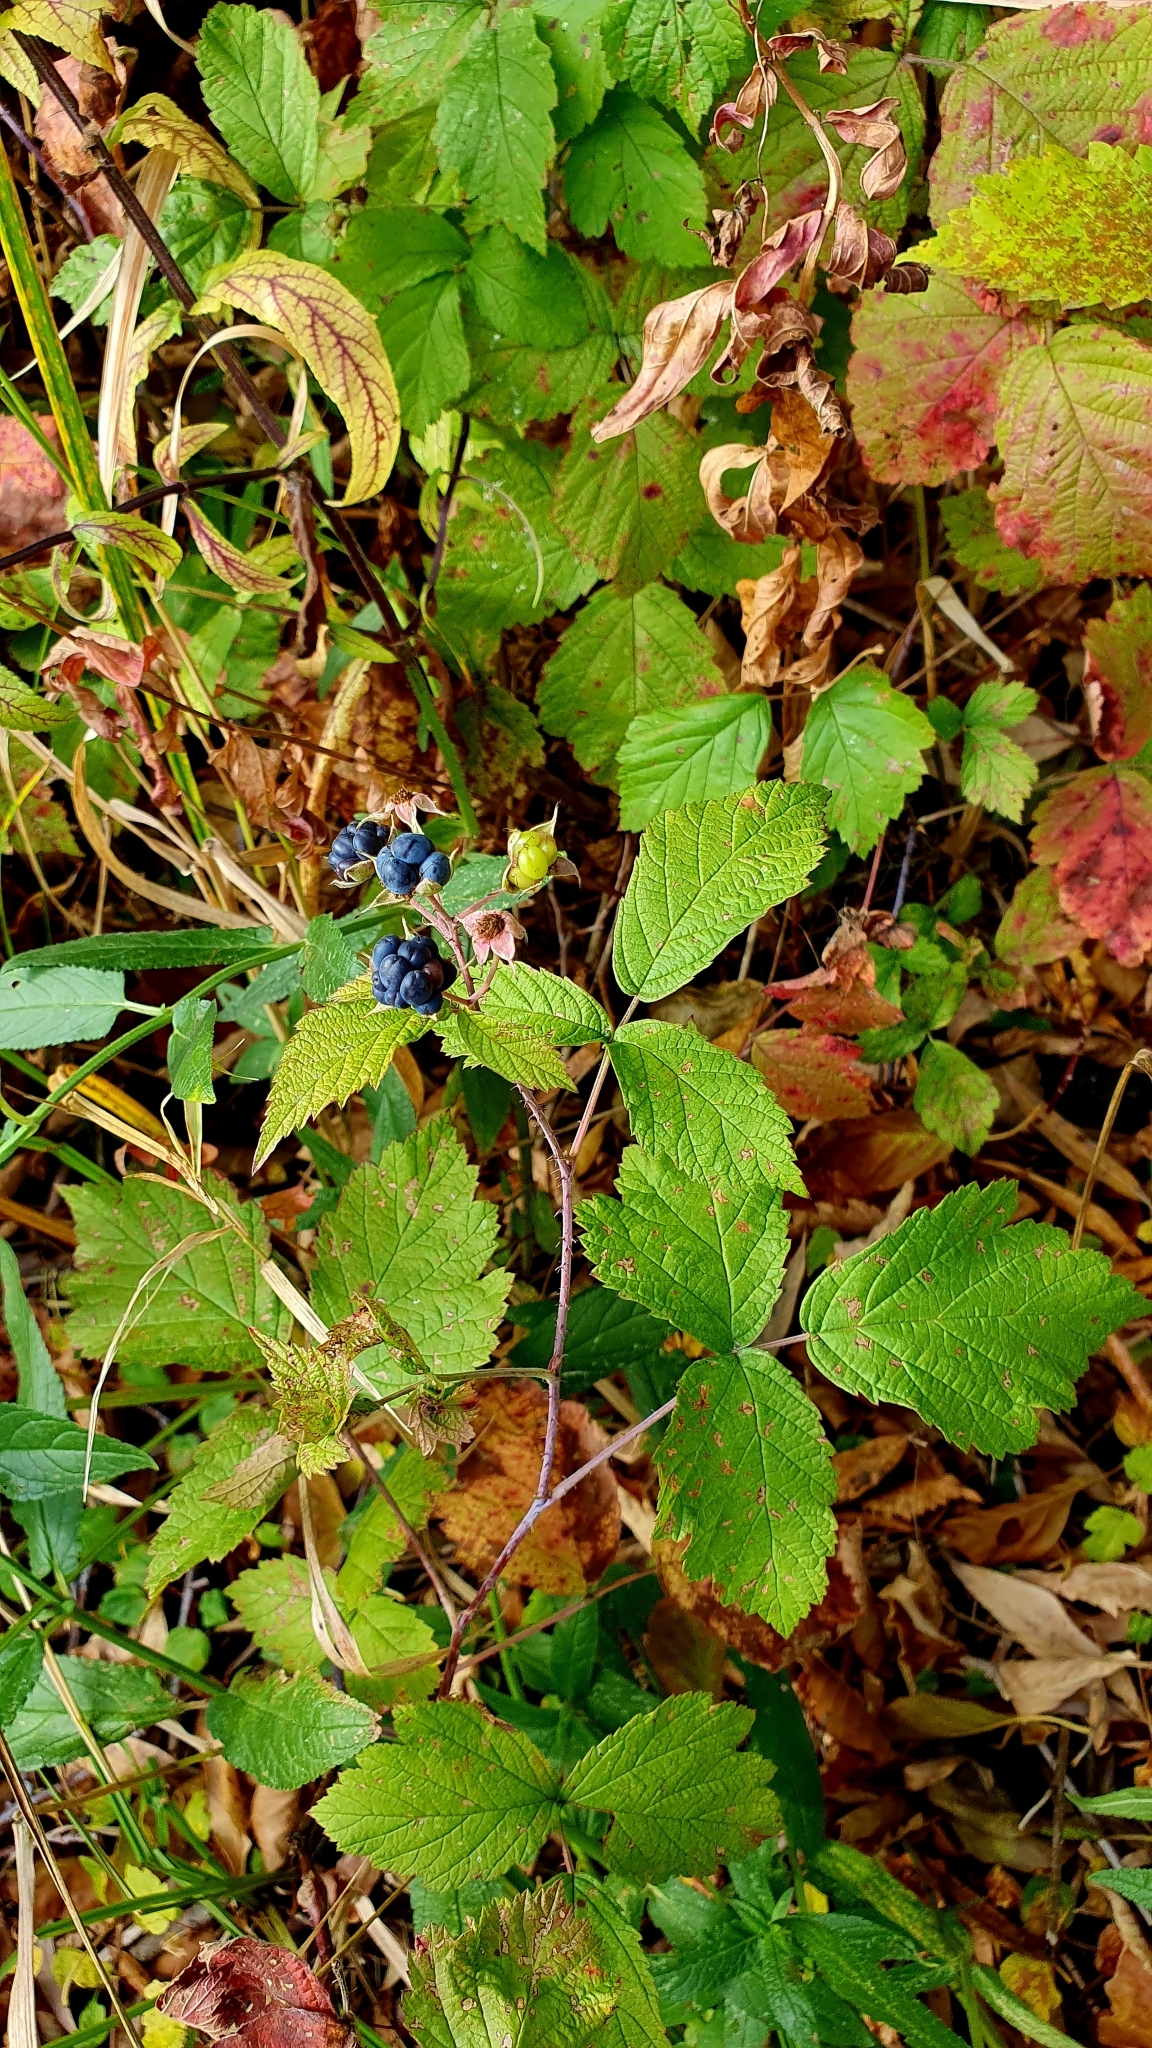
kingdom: Plantae
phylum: Tracheophyta
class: Magnoliopsida
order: Rosales
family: Rosaceae
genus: Rubus
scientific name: Rubus caesius
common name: Dewberry
